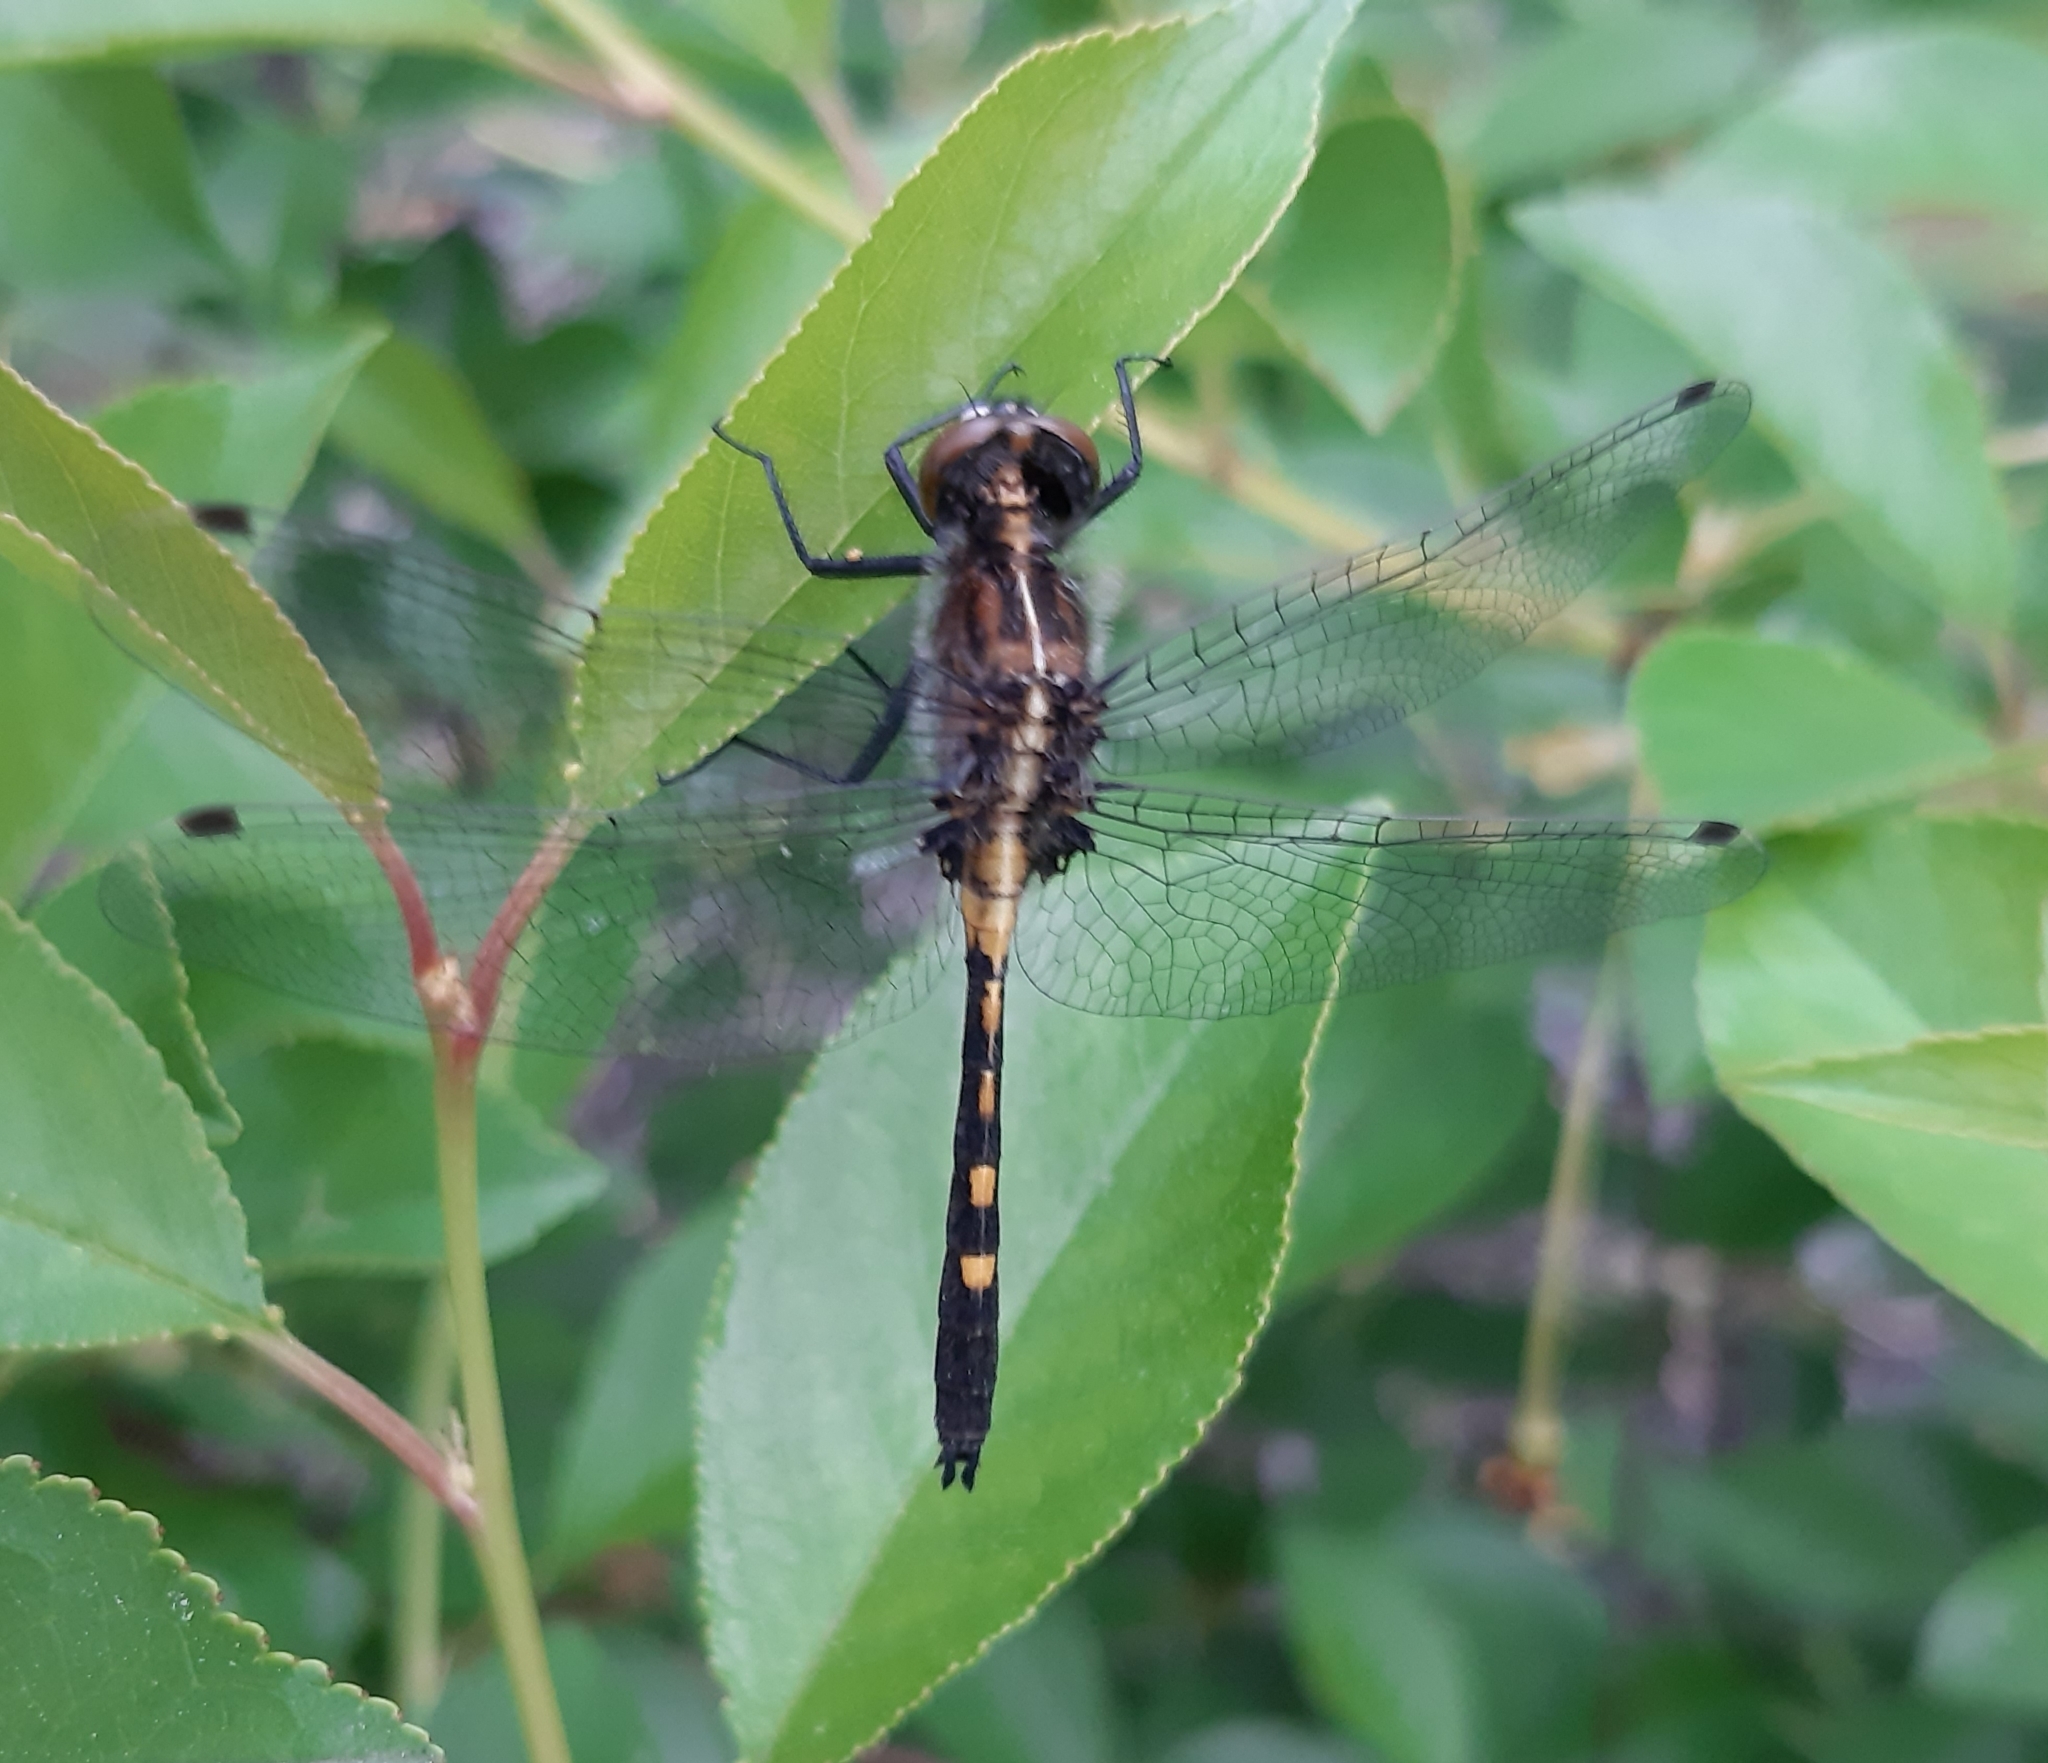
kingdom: Animalia
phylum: Arthropoda
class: Insecta
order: Odonata
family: Libellulidae
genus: Leucorrhinia
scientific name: Leucorrhinia intacta
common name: Dot-tailed whiteface
